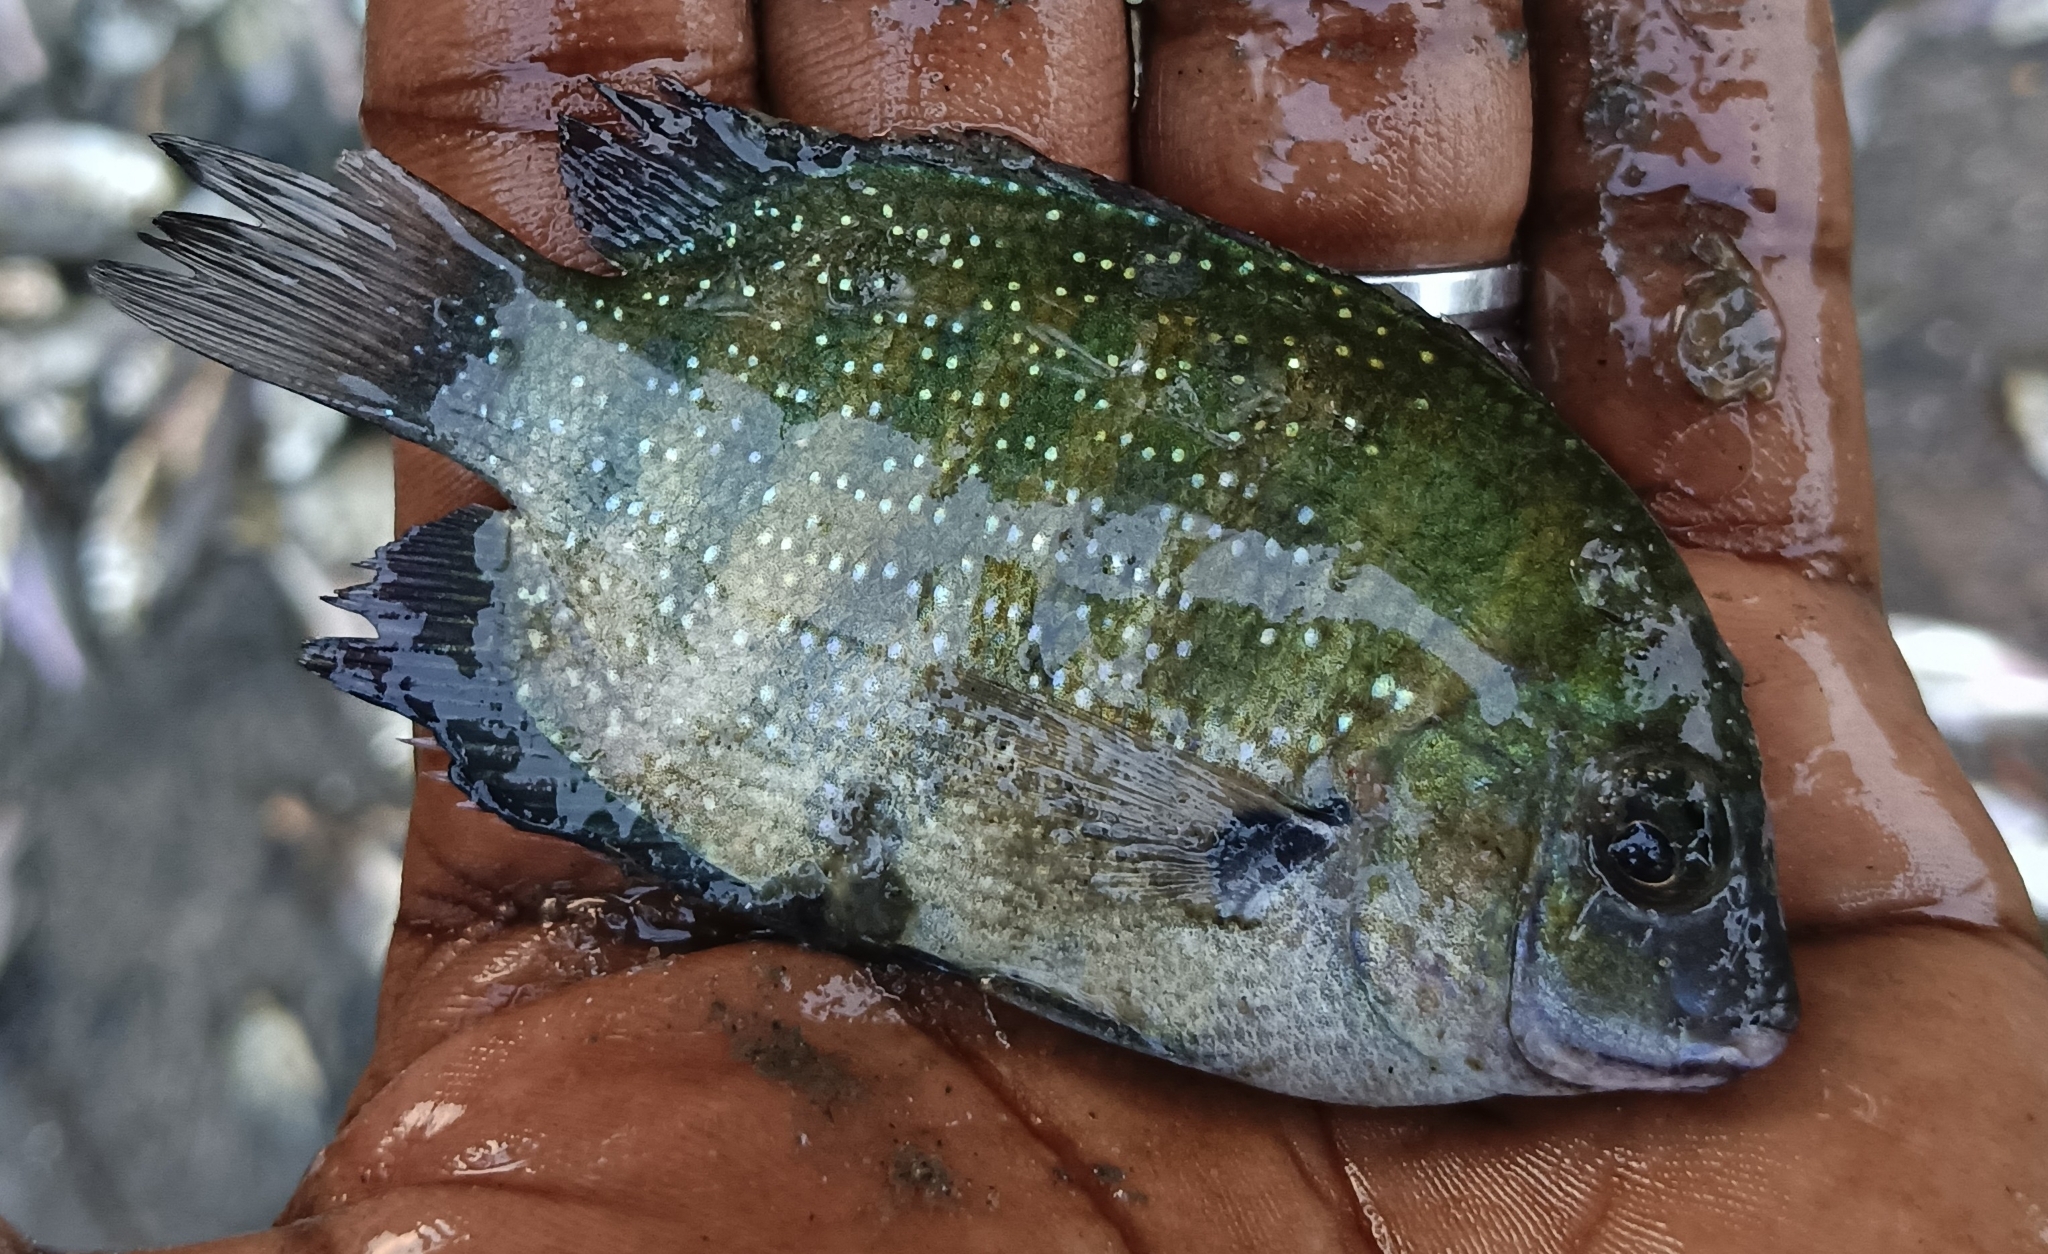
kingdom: Animalia
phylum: Chordata
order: Perciformes
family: Cichlidae
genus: Etroplus
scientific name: Etroplus suratensis
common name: Green chromide
